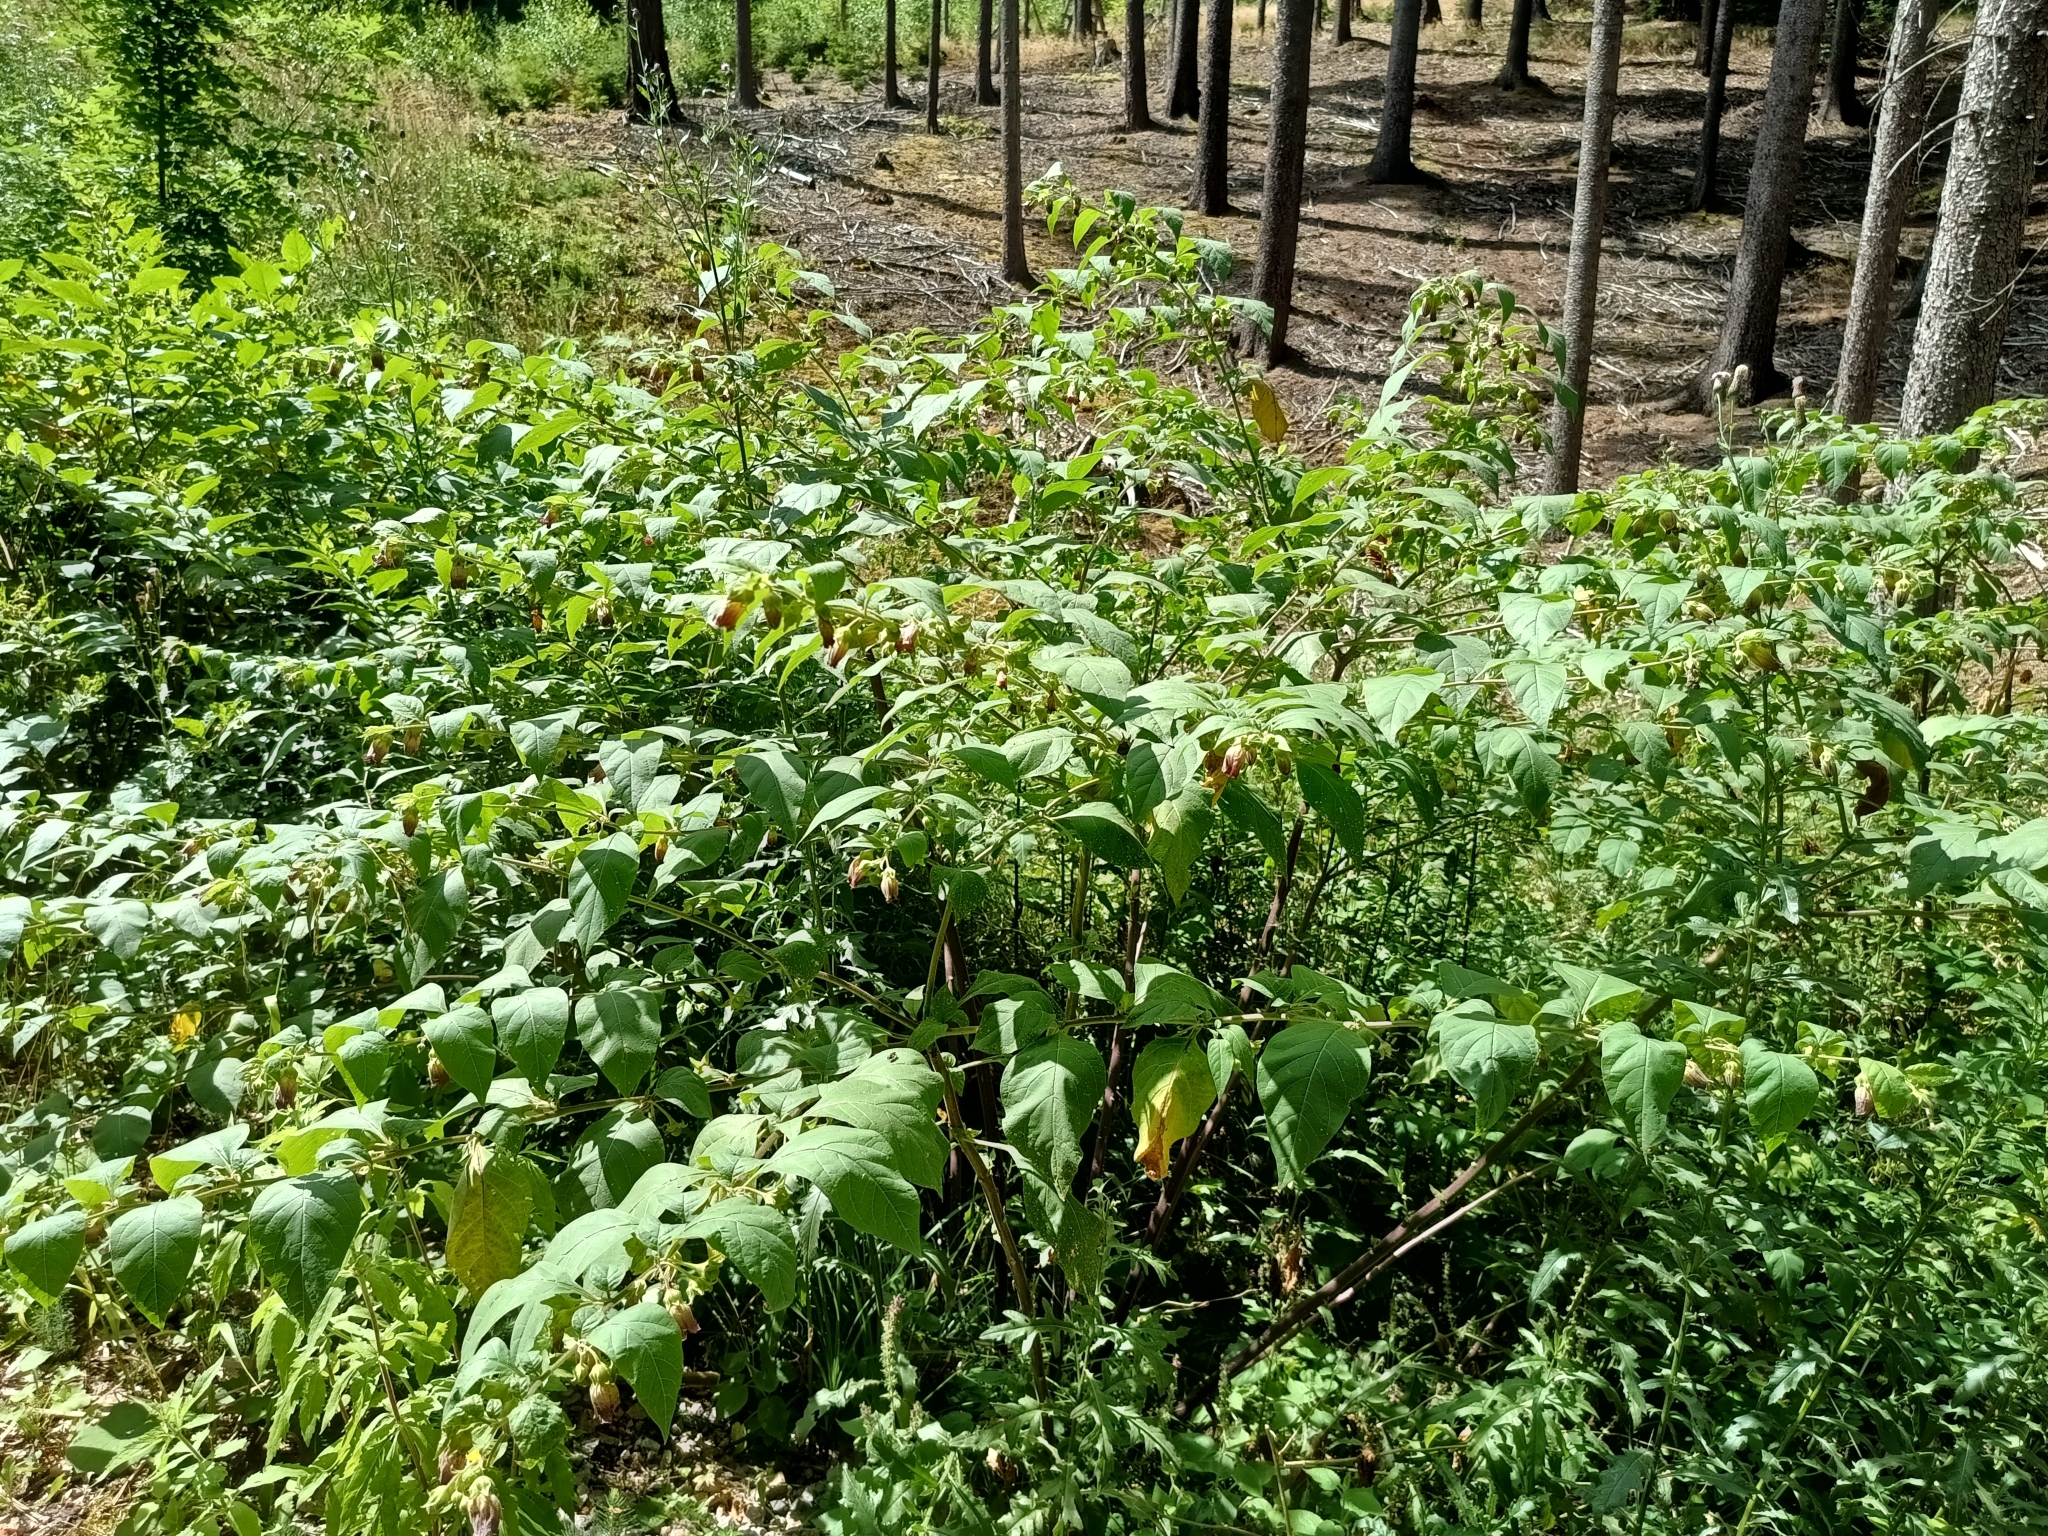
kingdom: Plantae
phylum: Tracheophyta
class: Magnoliopsida
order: Solanales
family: Solanaceae
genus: Atropa
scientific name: Atropa belladonna
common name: Deadly nightshade
